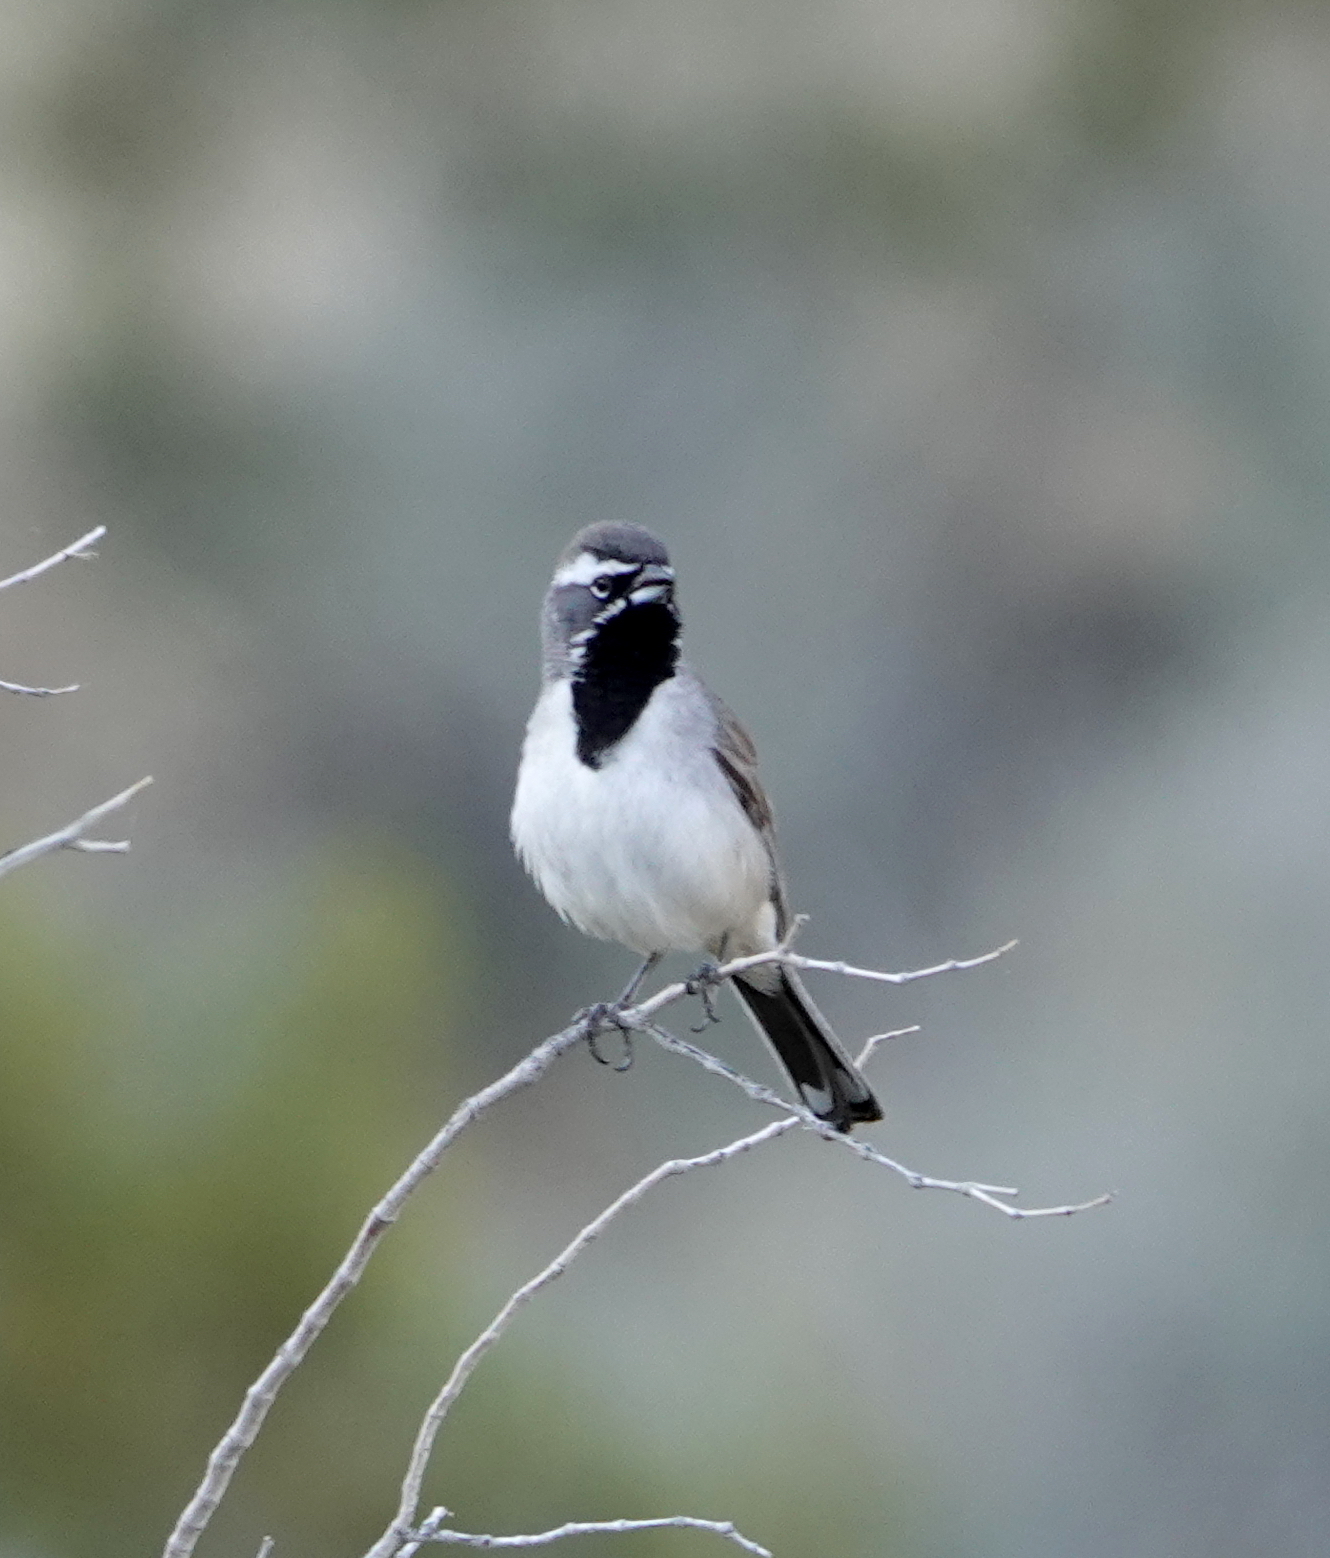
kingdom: Animalia
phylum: Chordata
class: Aves
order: Passeriformes
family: Passerellidae
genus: Amphispiza
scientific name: Amphispiza bilineata
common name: Black-throated sparrow
